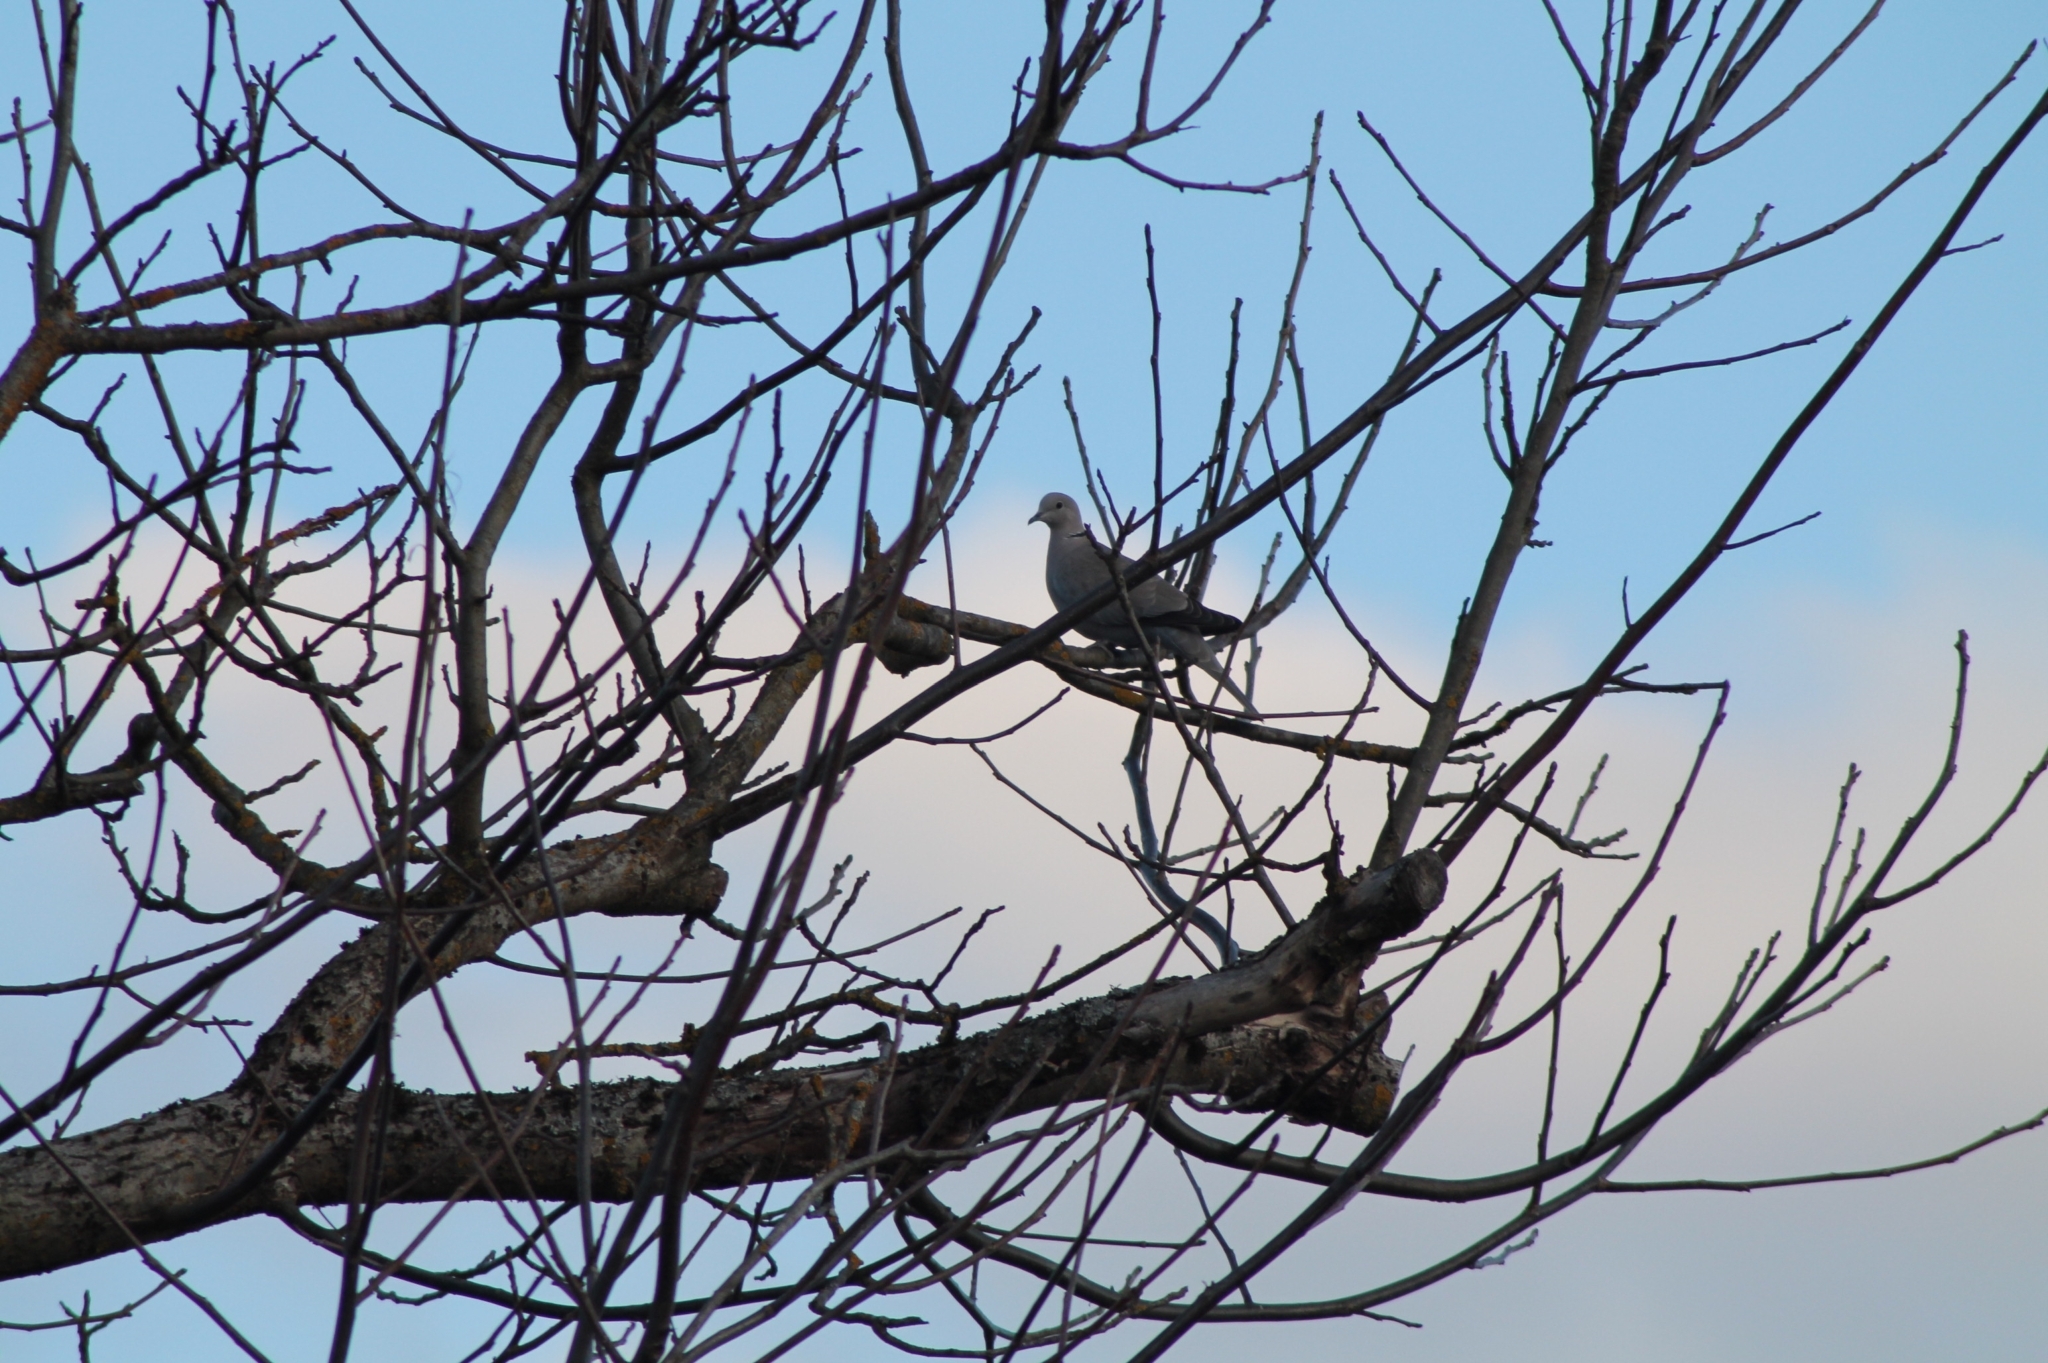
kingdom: Animalia
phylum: Chordata
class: Aves
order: Columbiformes
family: Columbidae
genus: Streptopelia
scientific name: Streptopelia decaocto
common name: Eurasian collared dove
